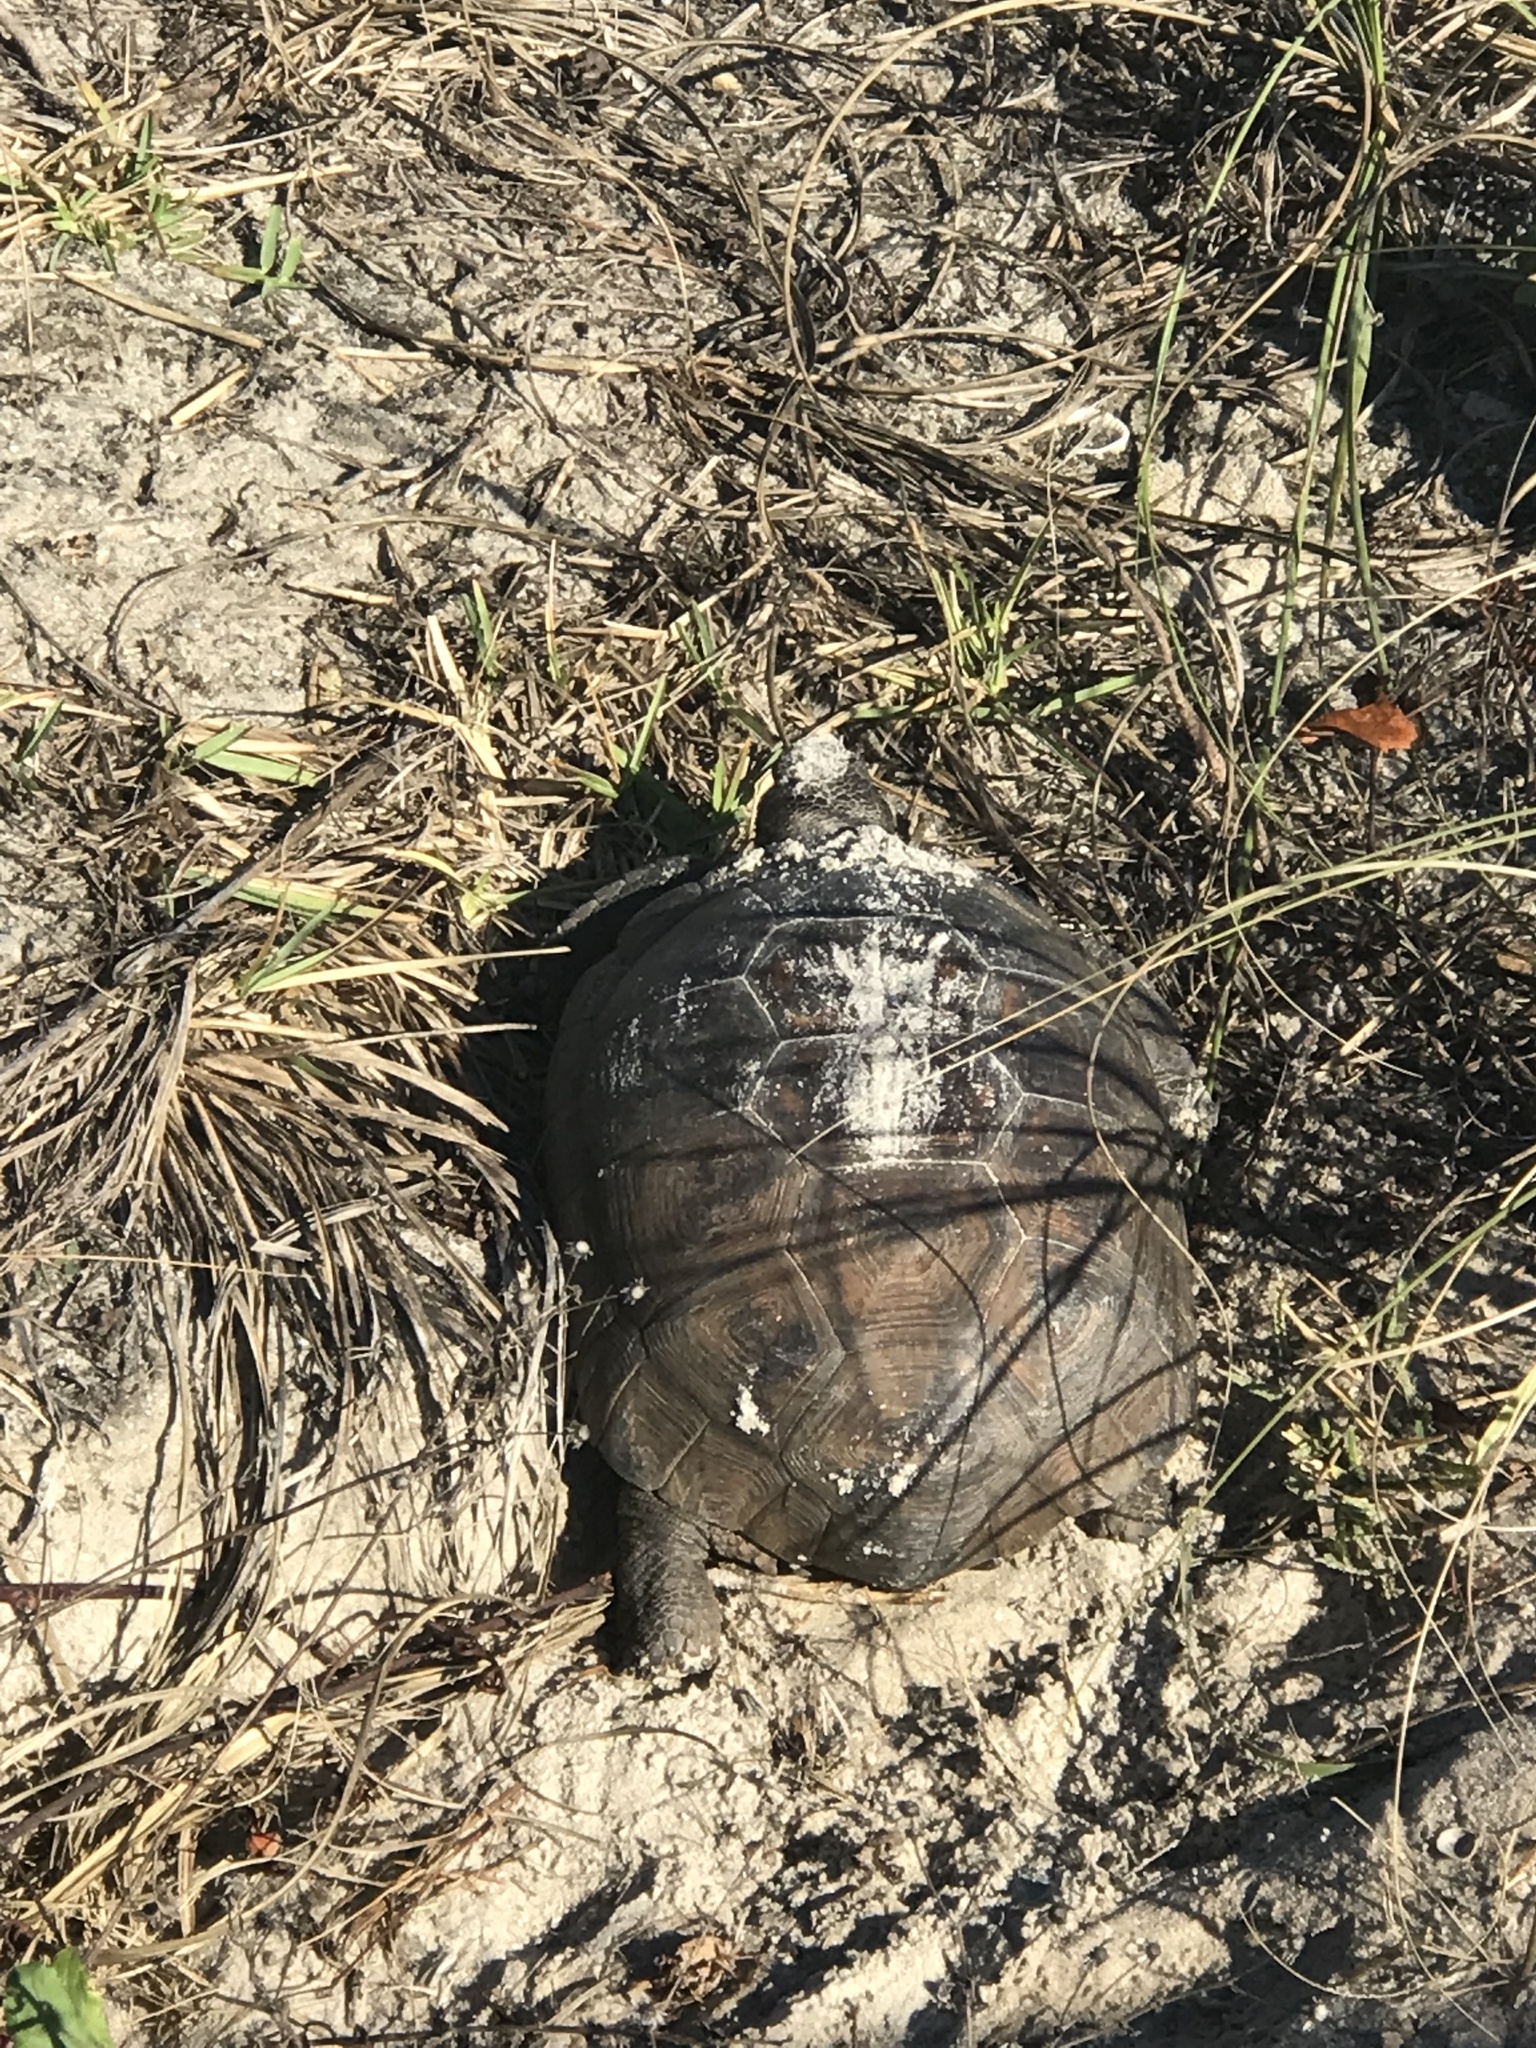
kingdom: Animalia
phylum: Chordata
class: Testudines
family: Testudinidae
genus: Gopherus
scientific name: Gopherus polyphemus
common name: Florida gopher tortoise
